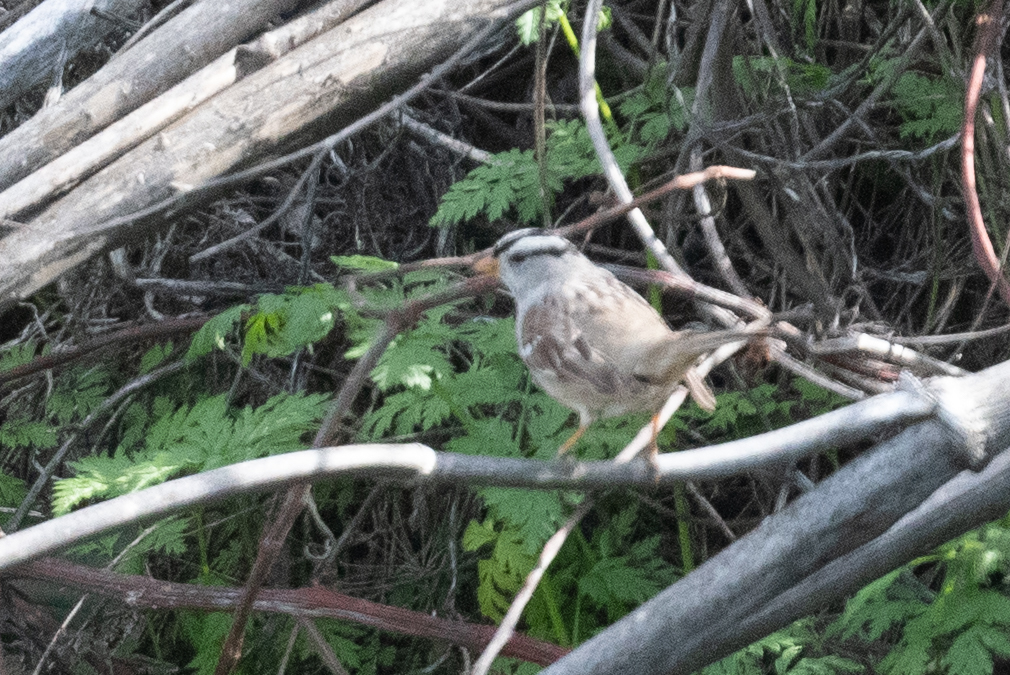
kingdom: Animalia
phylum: Chordata
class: Aves
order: Passeriformes
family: Passerellidae
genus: Zonotrichia
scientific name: Zonotrichia leucophrys
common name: White-crowned sparrow
